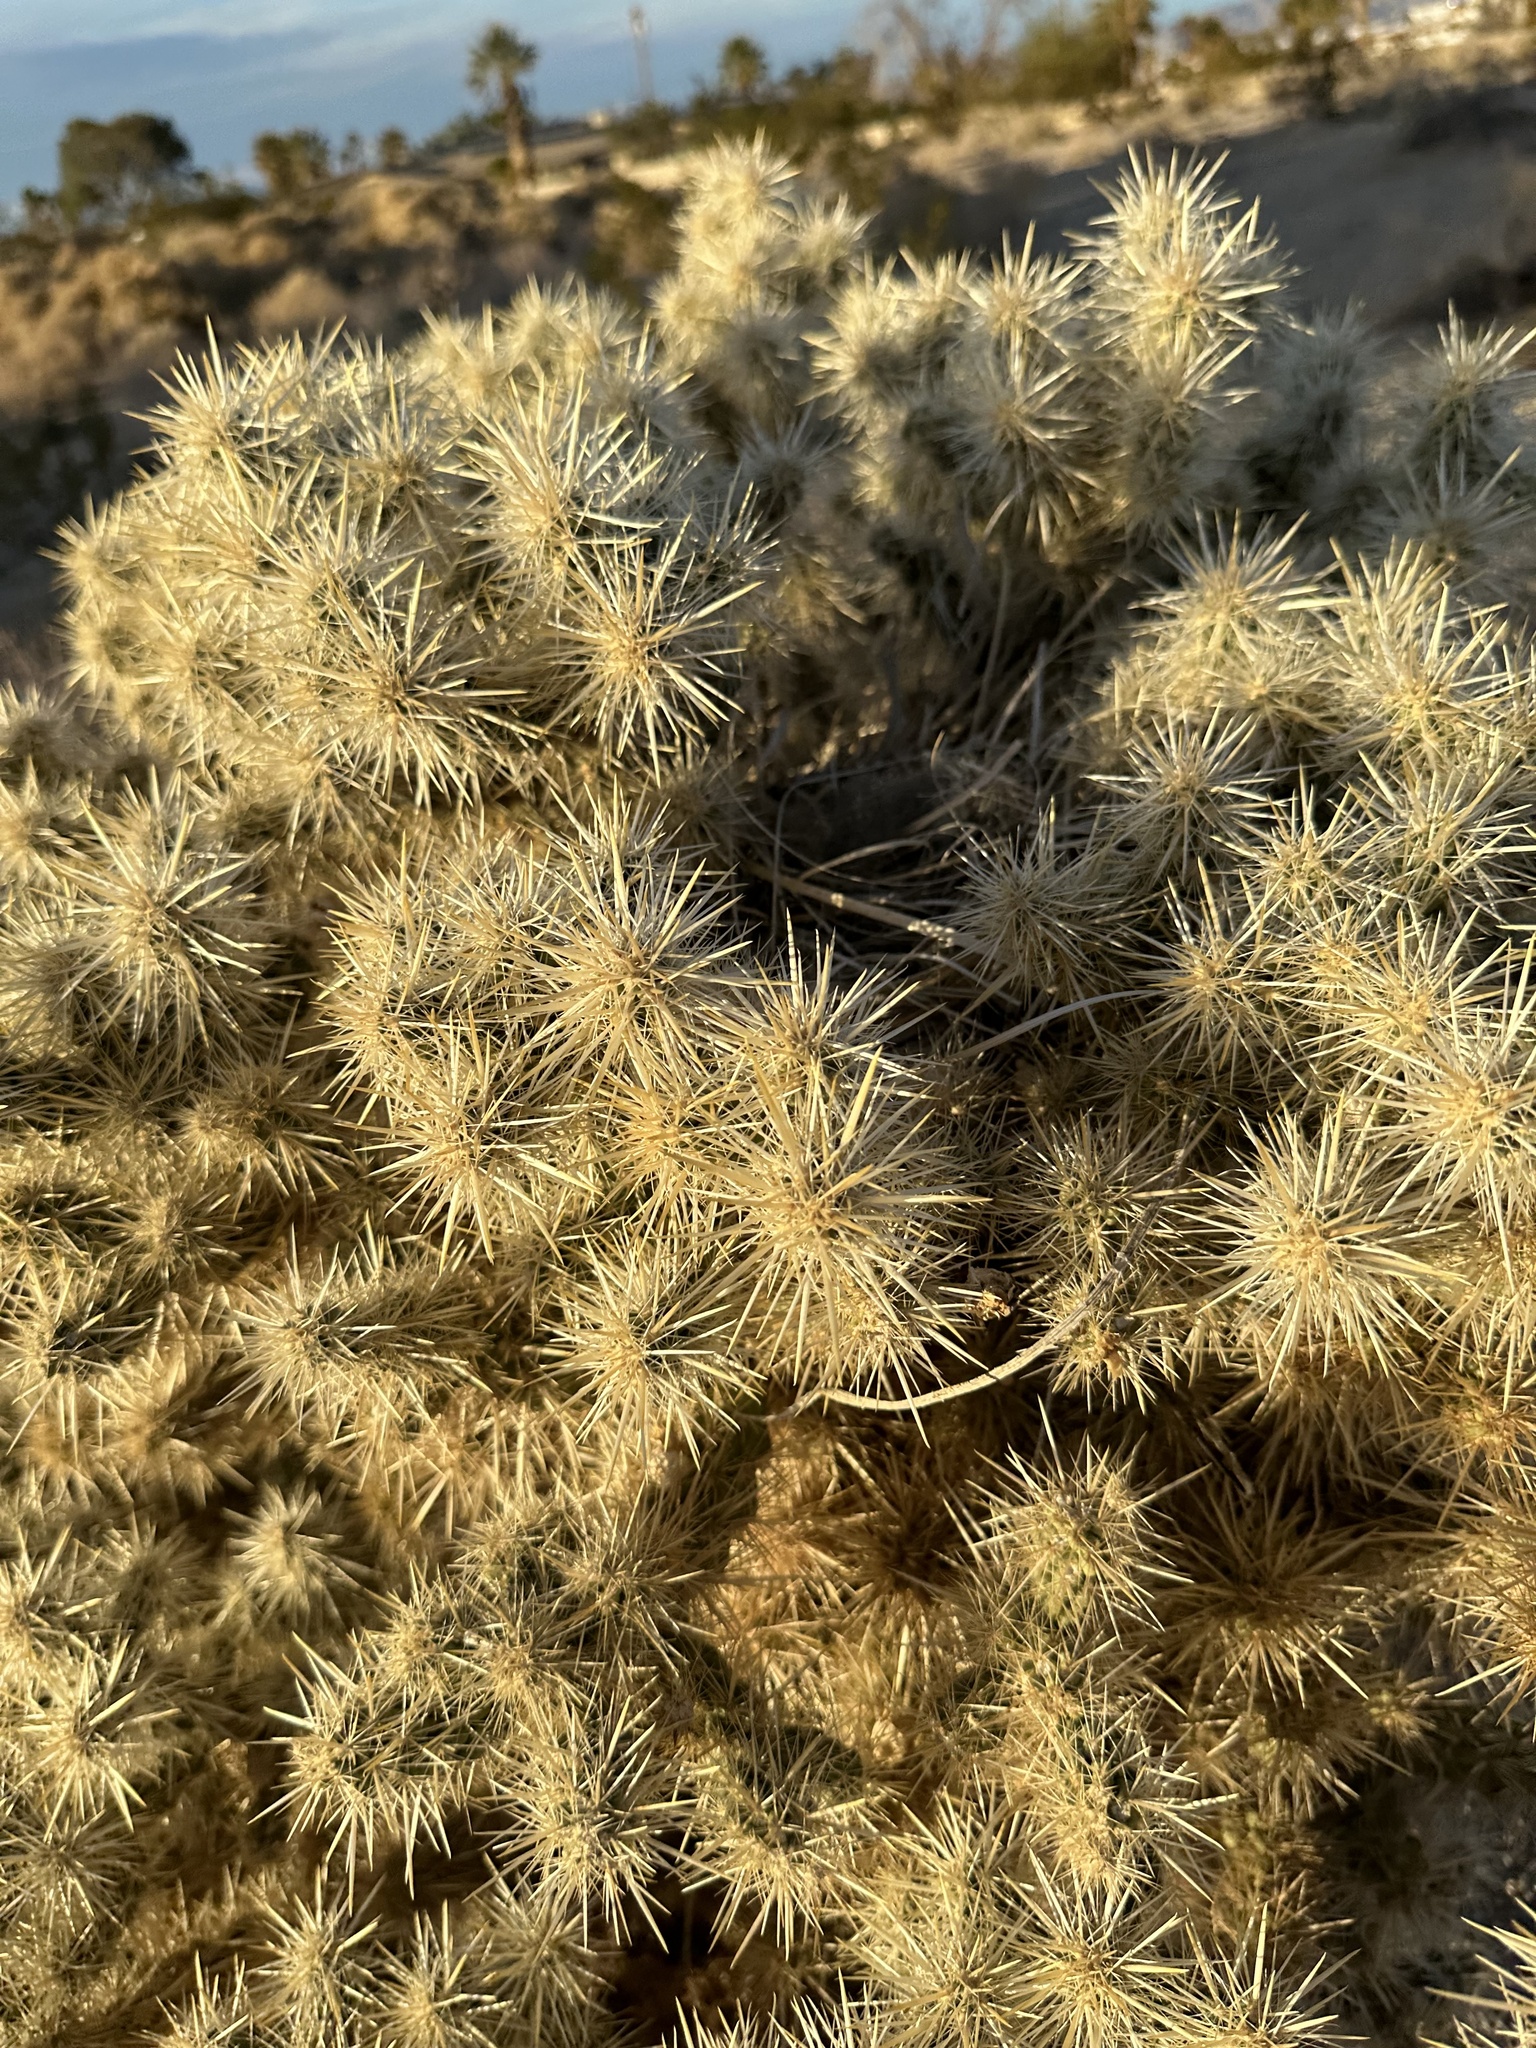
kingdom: Plantae
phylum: Tracheophyta
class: Magnoliopsida
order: Caryophyllales
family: Cactaceae
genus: Cylindropuntia
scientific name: Cylindropuntia echinocarpa
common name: Ground cholla
